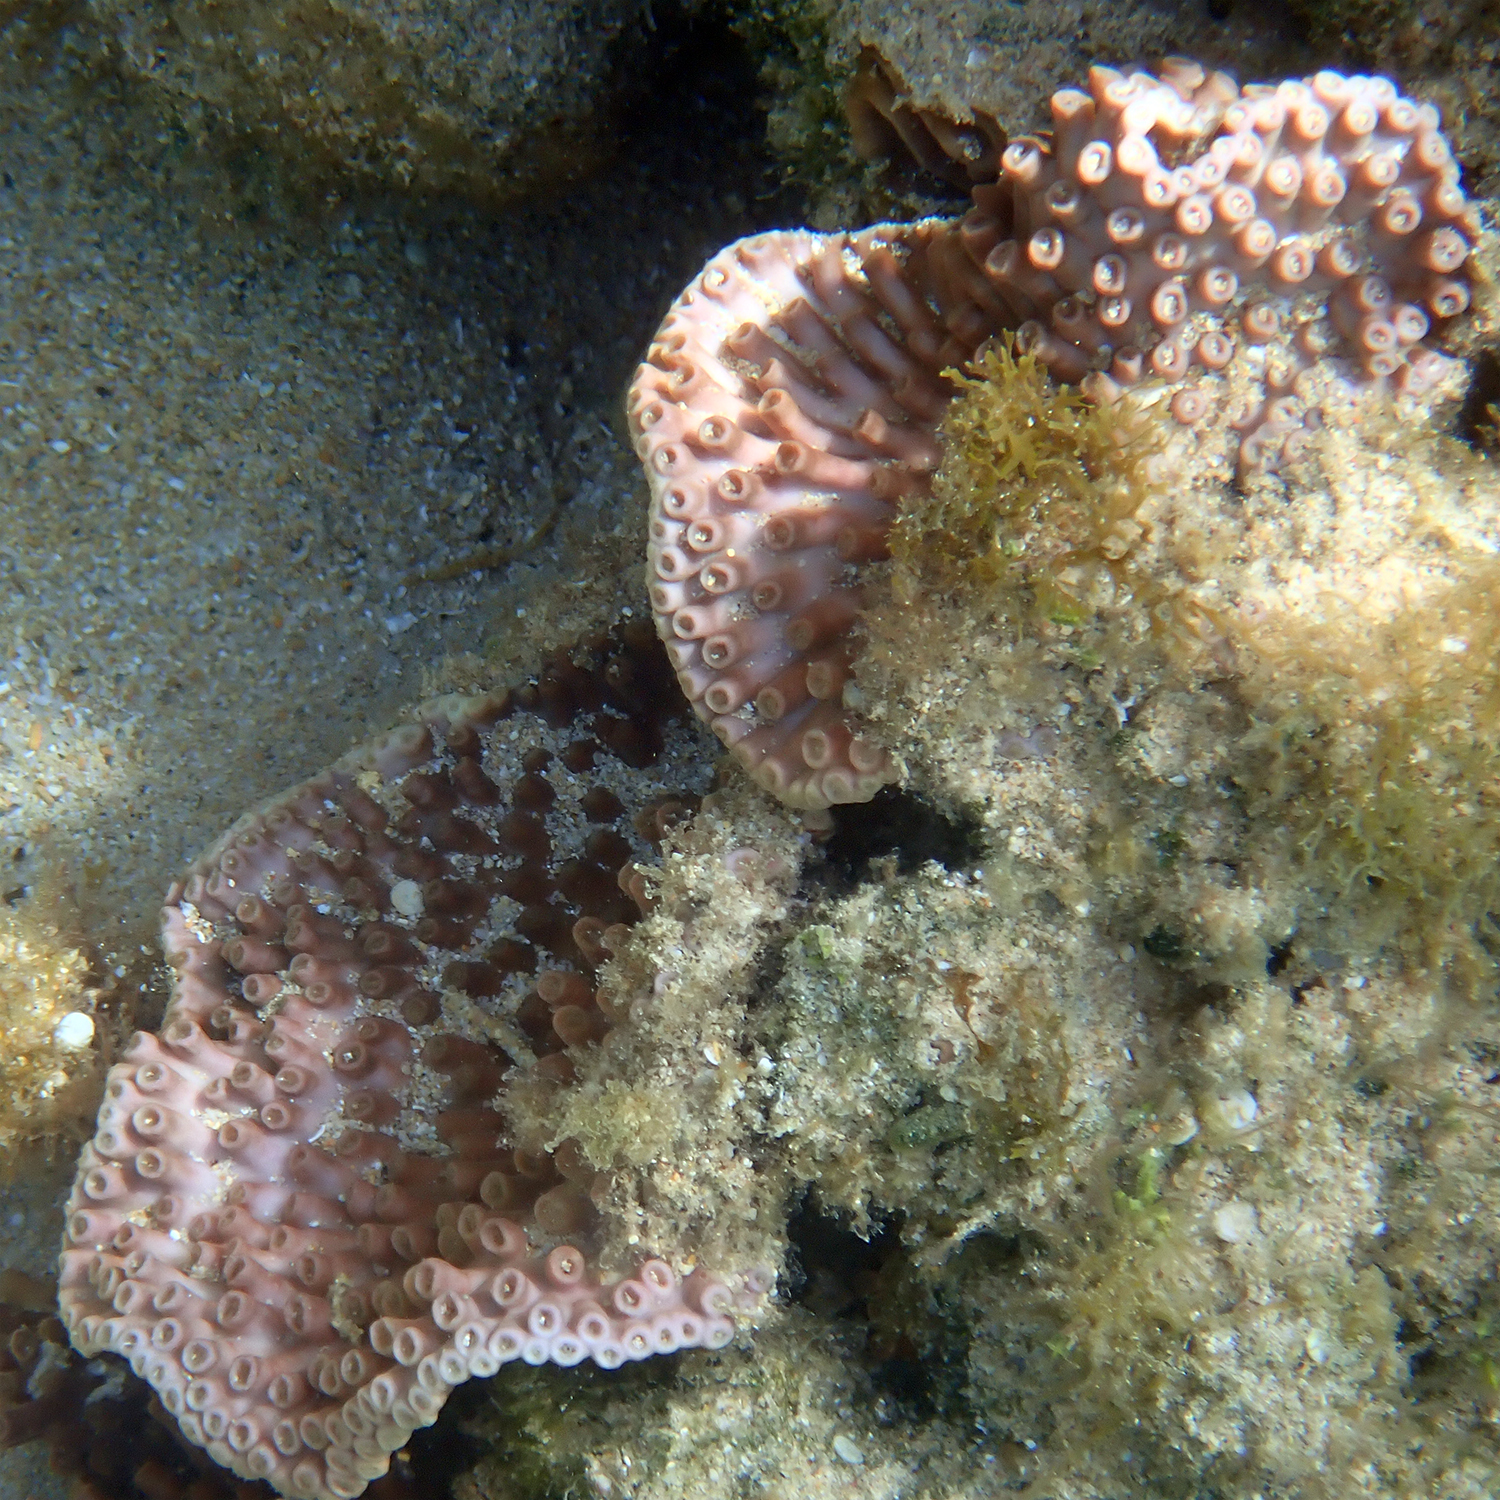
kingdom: Animalia
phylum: Cnidaria
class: Anthozoa
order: Scleractinia
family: Dendrophylliidae
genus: Turbinaria
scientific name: Turbinaria heronensis
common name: Disc coral
